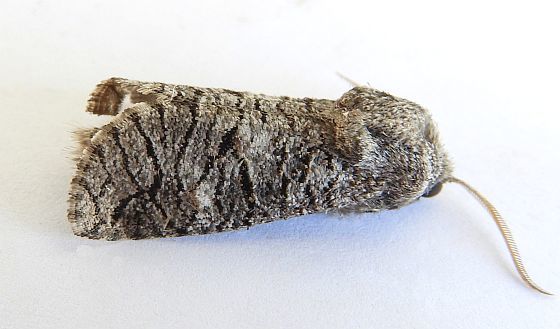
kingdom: Animalia
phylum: Arthropoda
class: Insecta
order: Lepidoptera
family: Cossidae
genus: Fania
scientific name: Fania nanus
